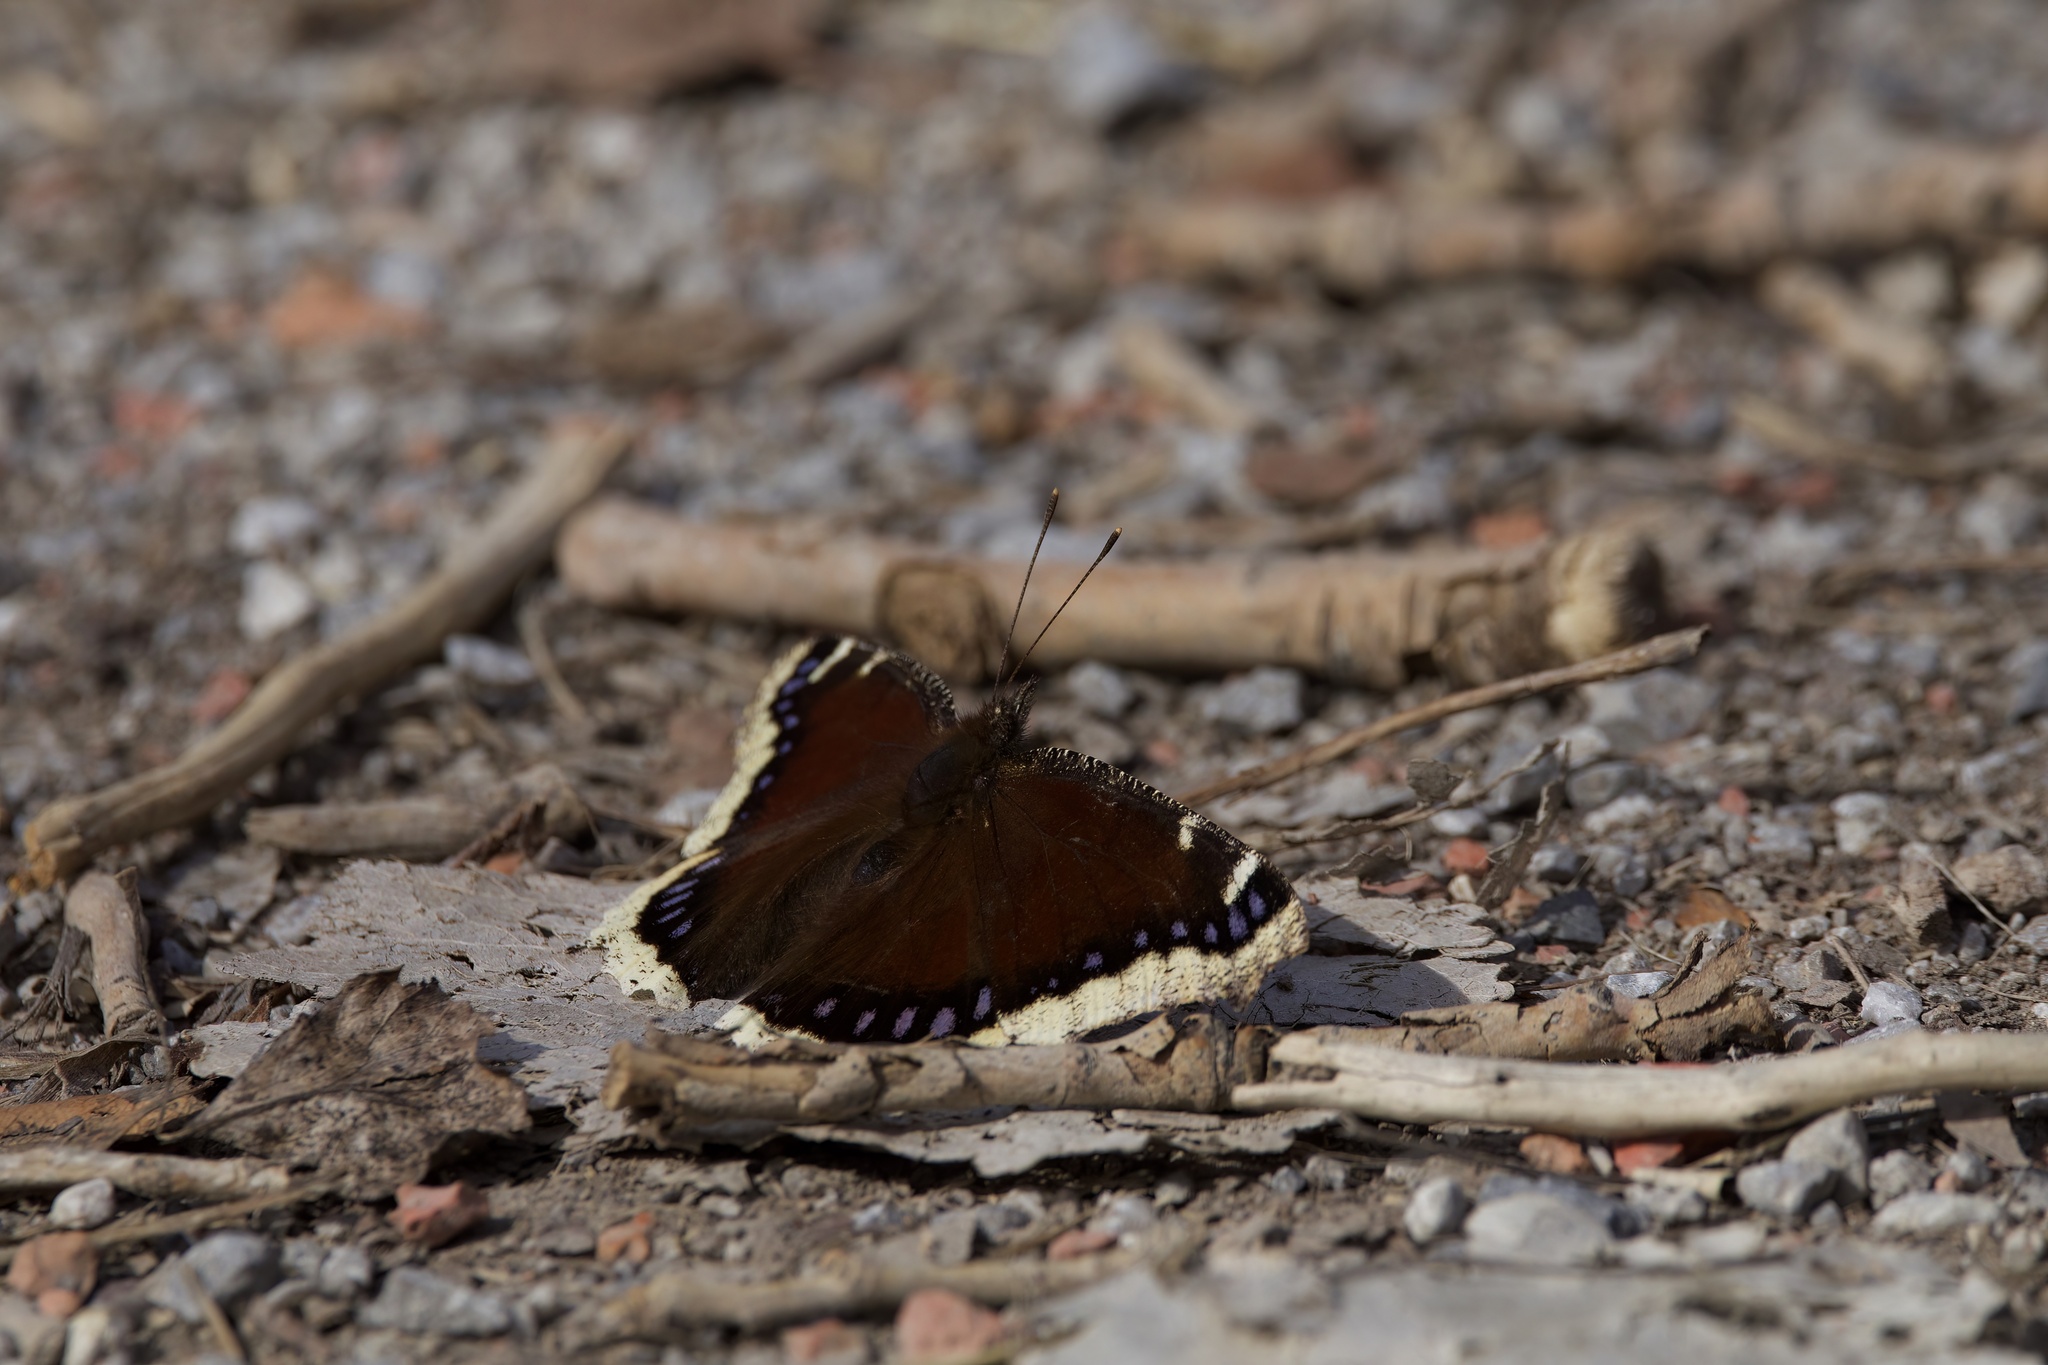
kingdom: Animalia
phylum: Arthropoda
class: Insecta
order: Lepidoptera
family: Nymphalidae
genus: Nymphalis
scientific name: Nymphalis antiopa
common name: Camberwell beauty
